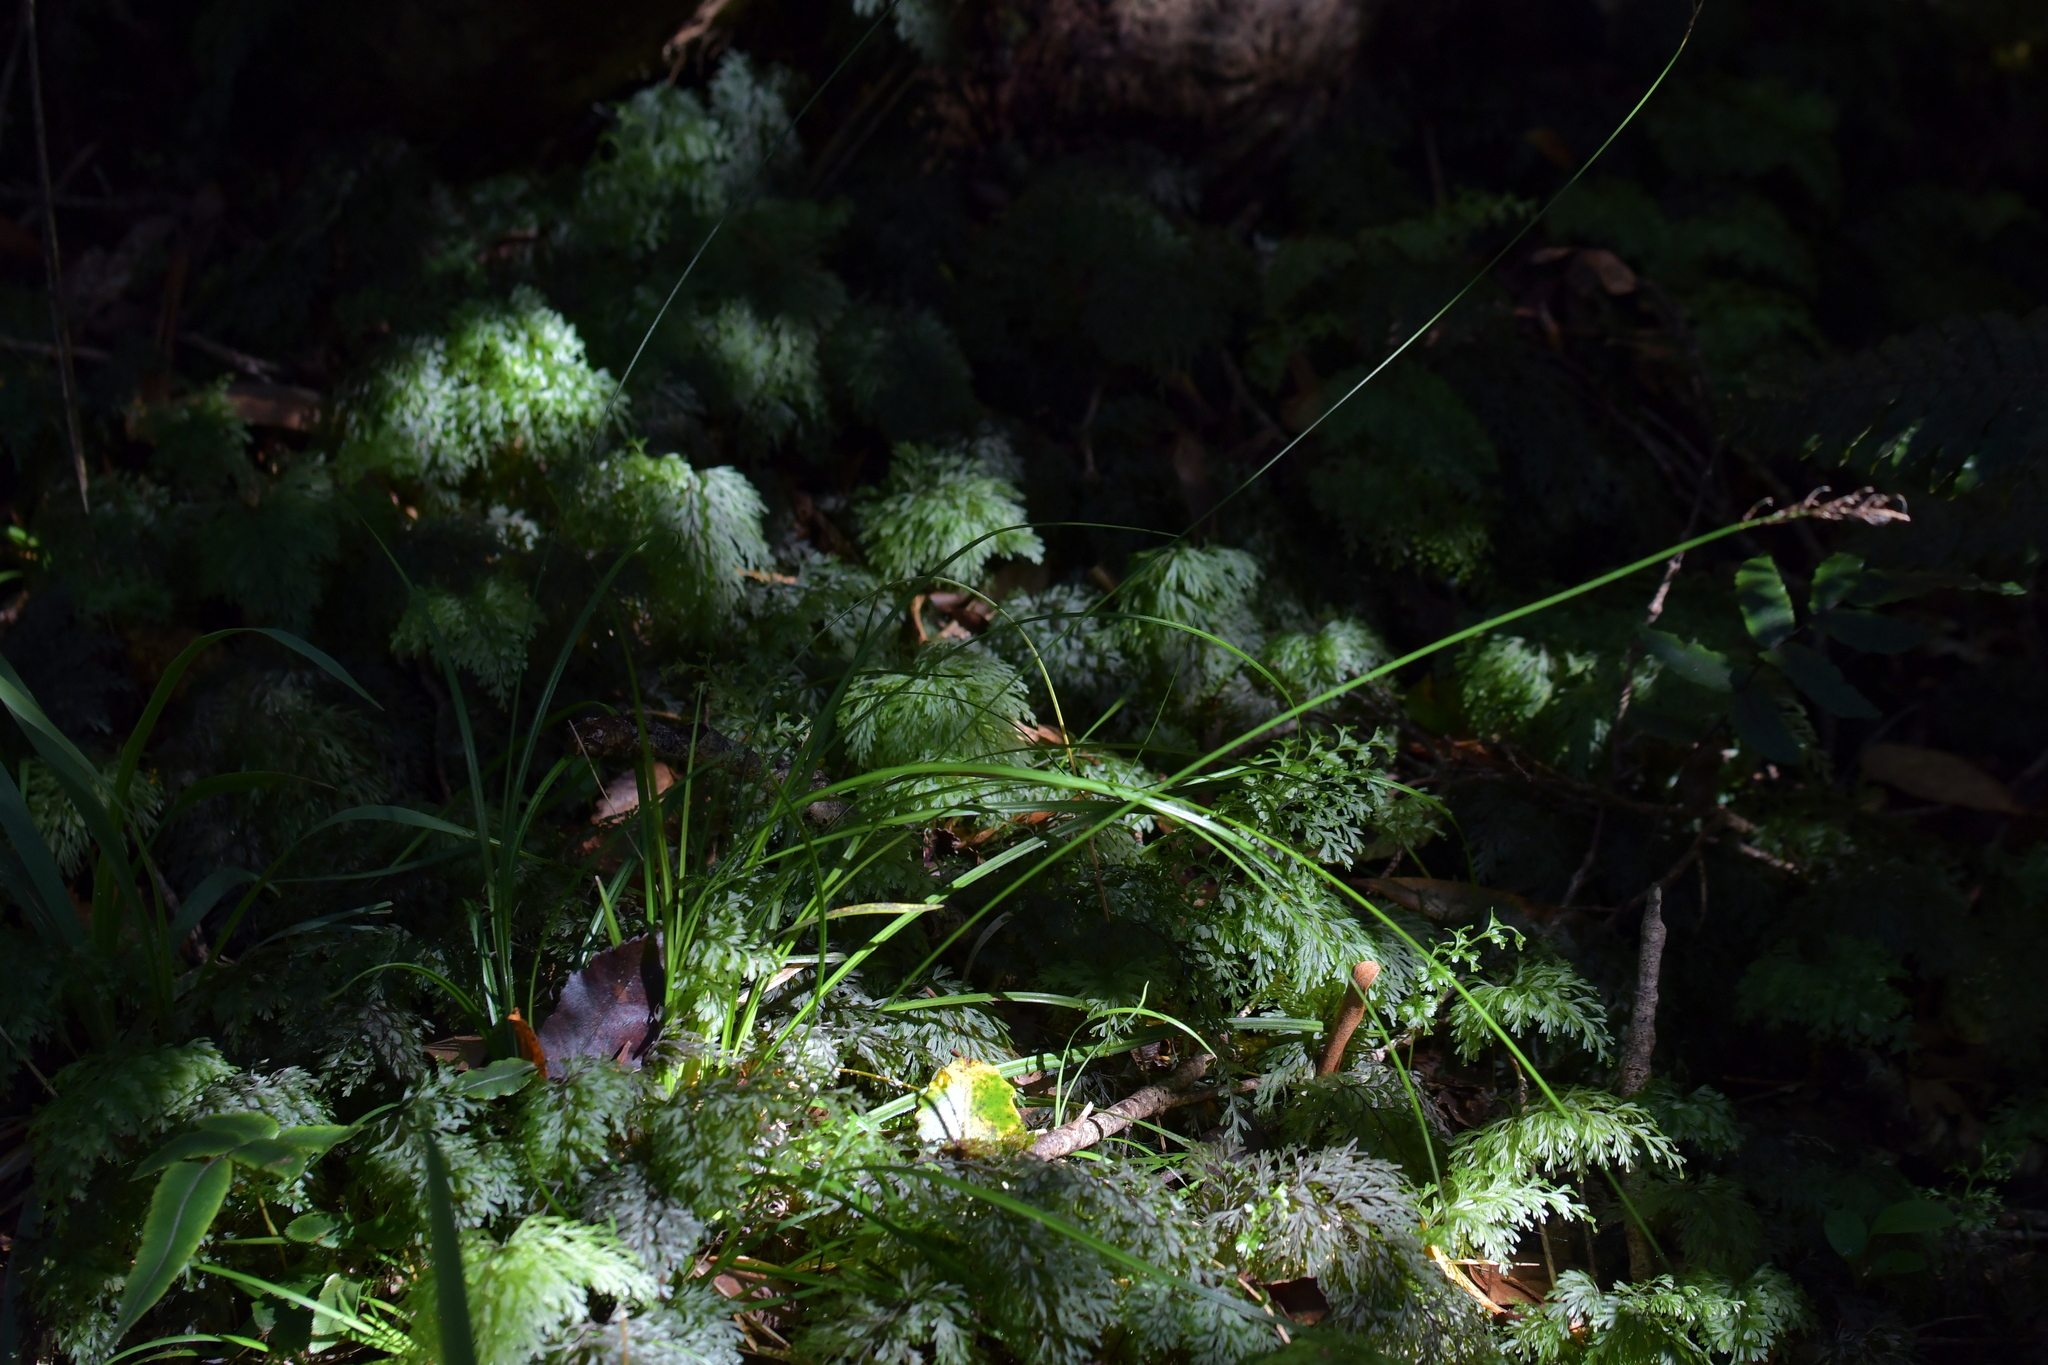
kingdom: Plantae
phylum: Tracheophyta
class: Liliopsida
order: Poales
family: Cyperaceae
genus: Carex
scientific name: Carex zotovii
